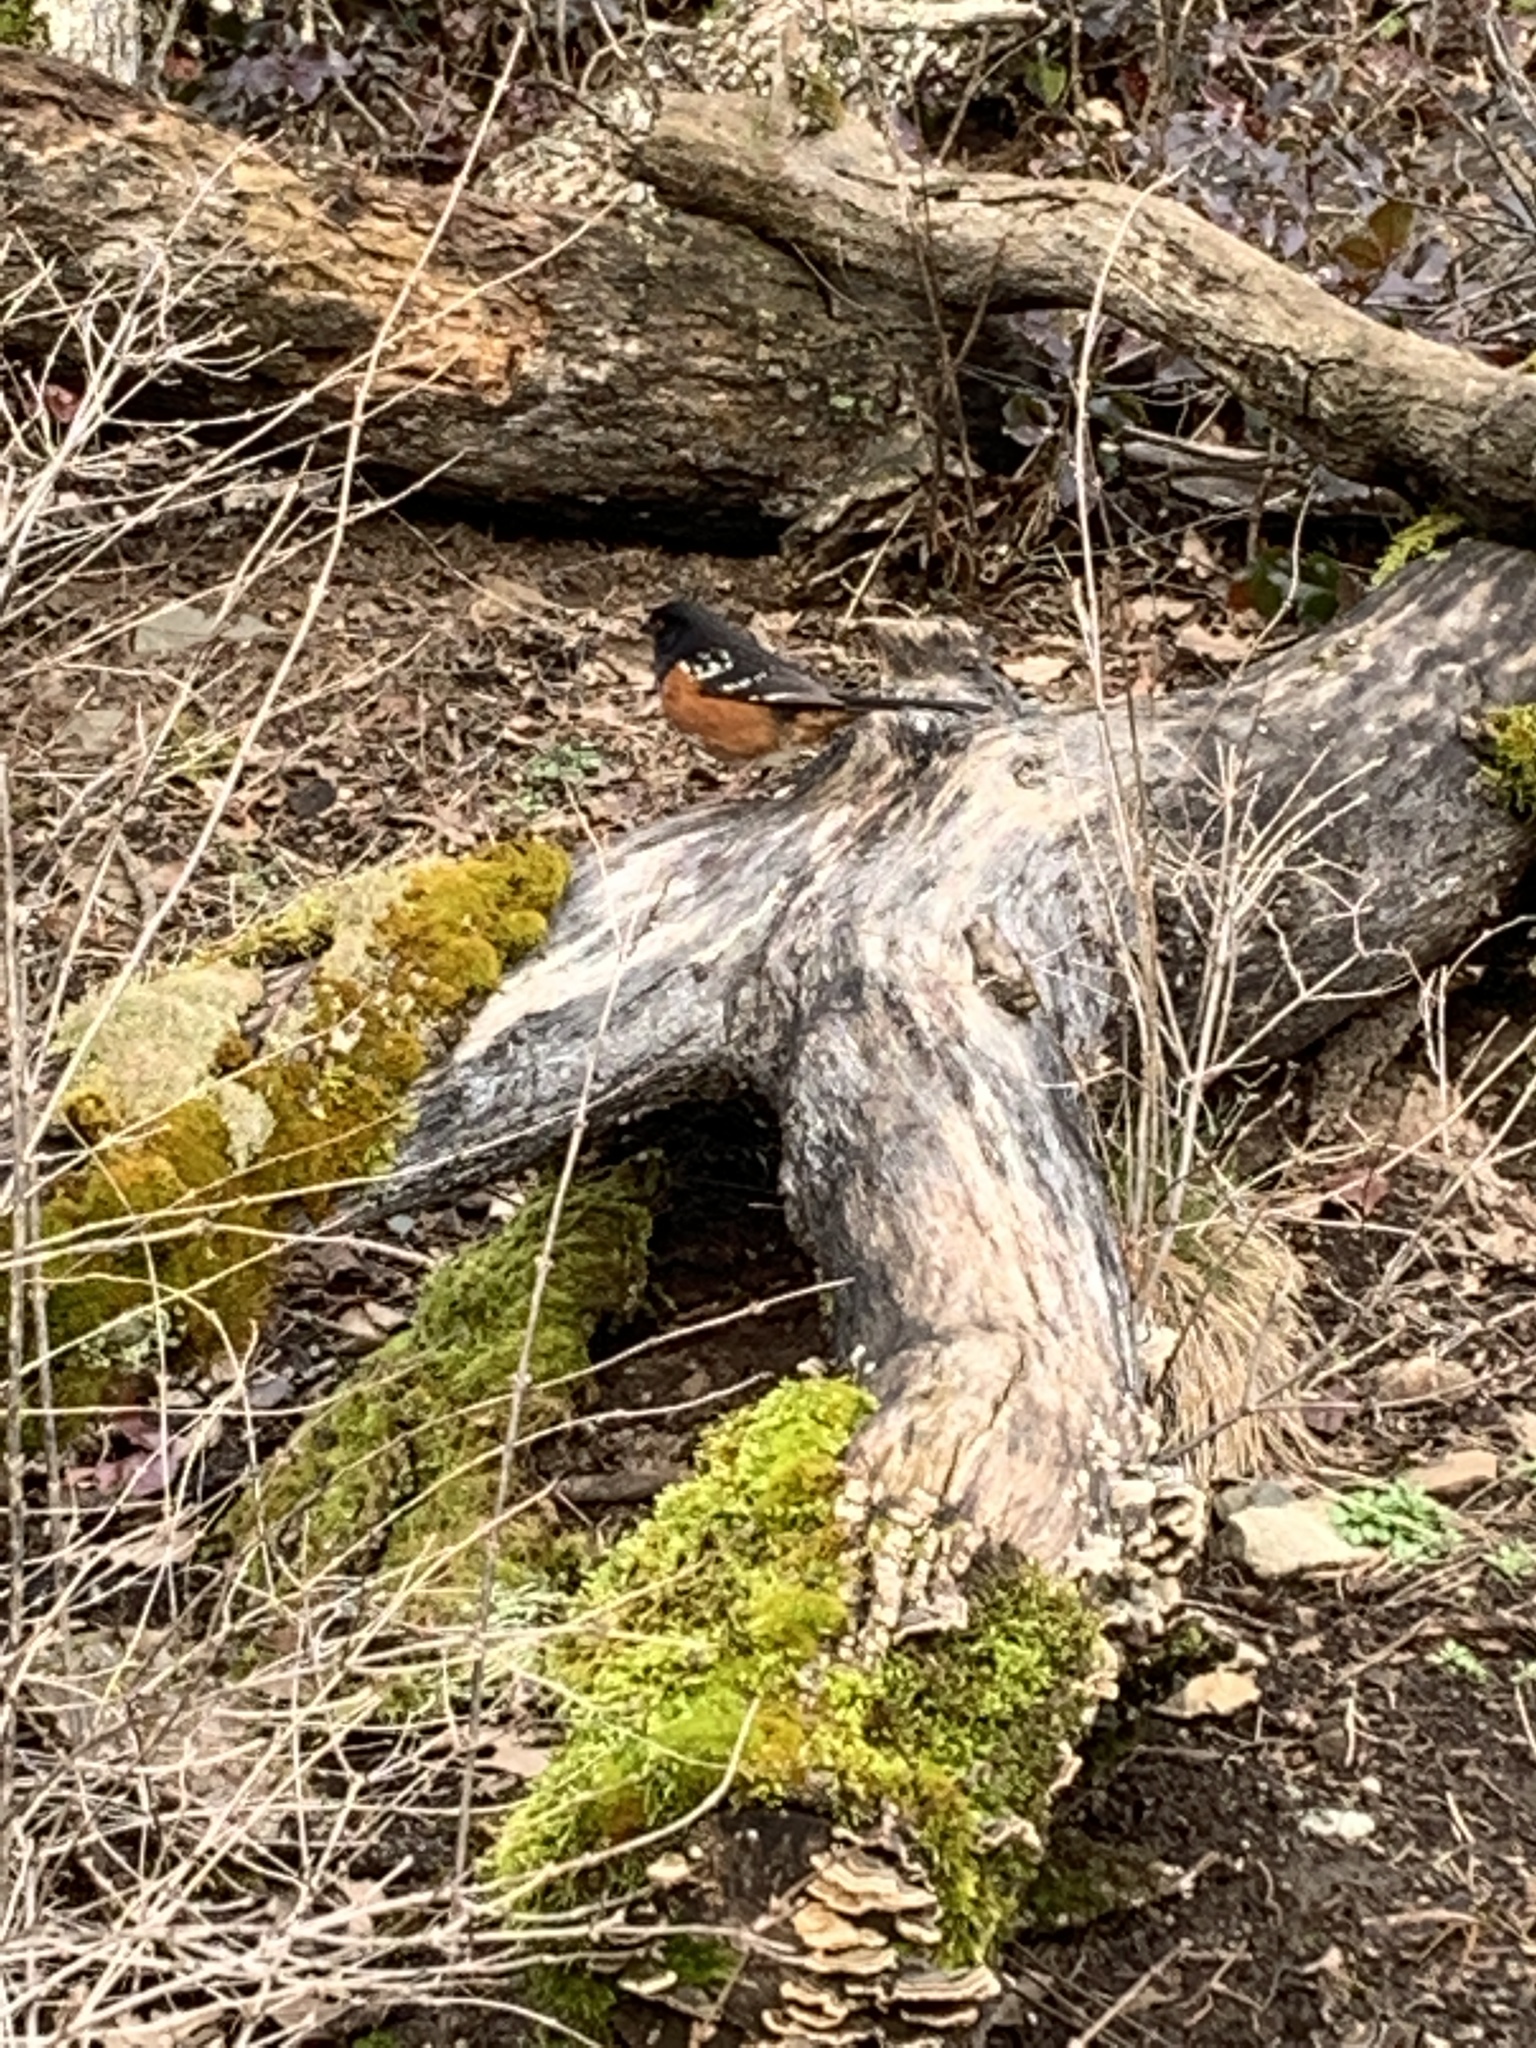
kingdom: Animalia
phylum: Chordata
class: Aves
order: Passeriformes
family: Passerellidae
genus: Pipilo
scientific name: Pipilo maculatus
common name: Spotted towhee
